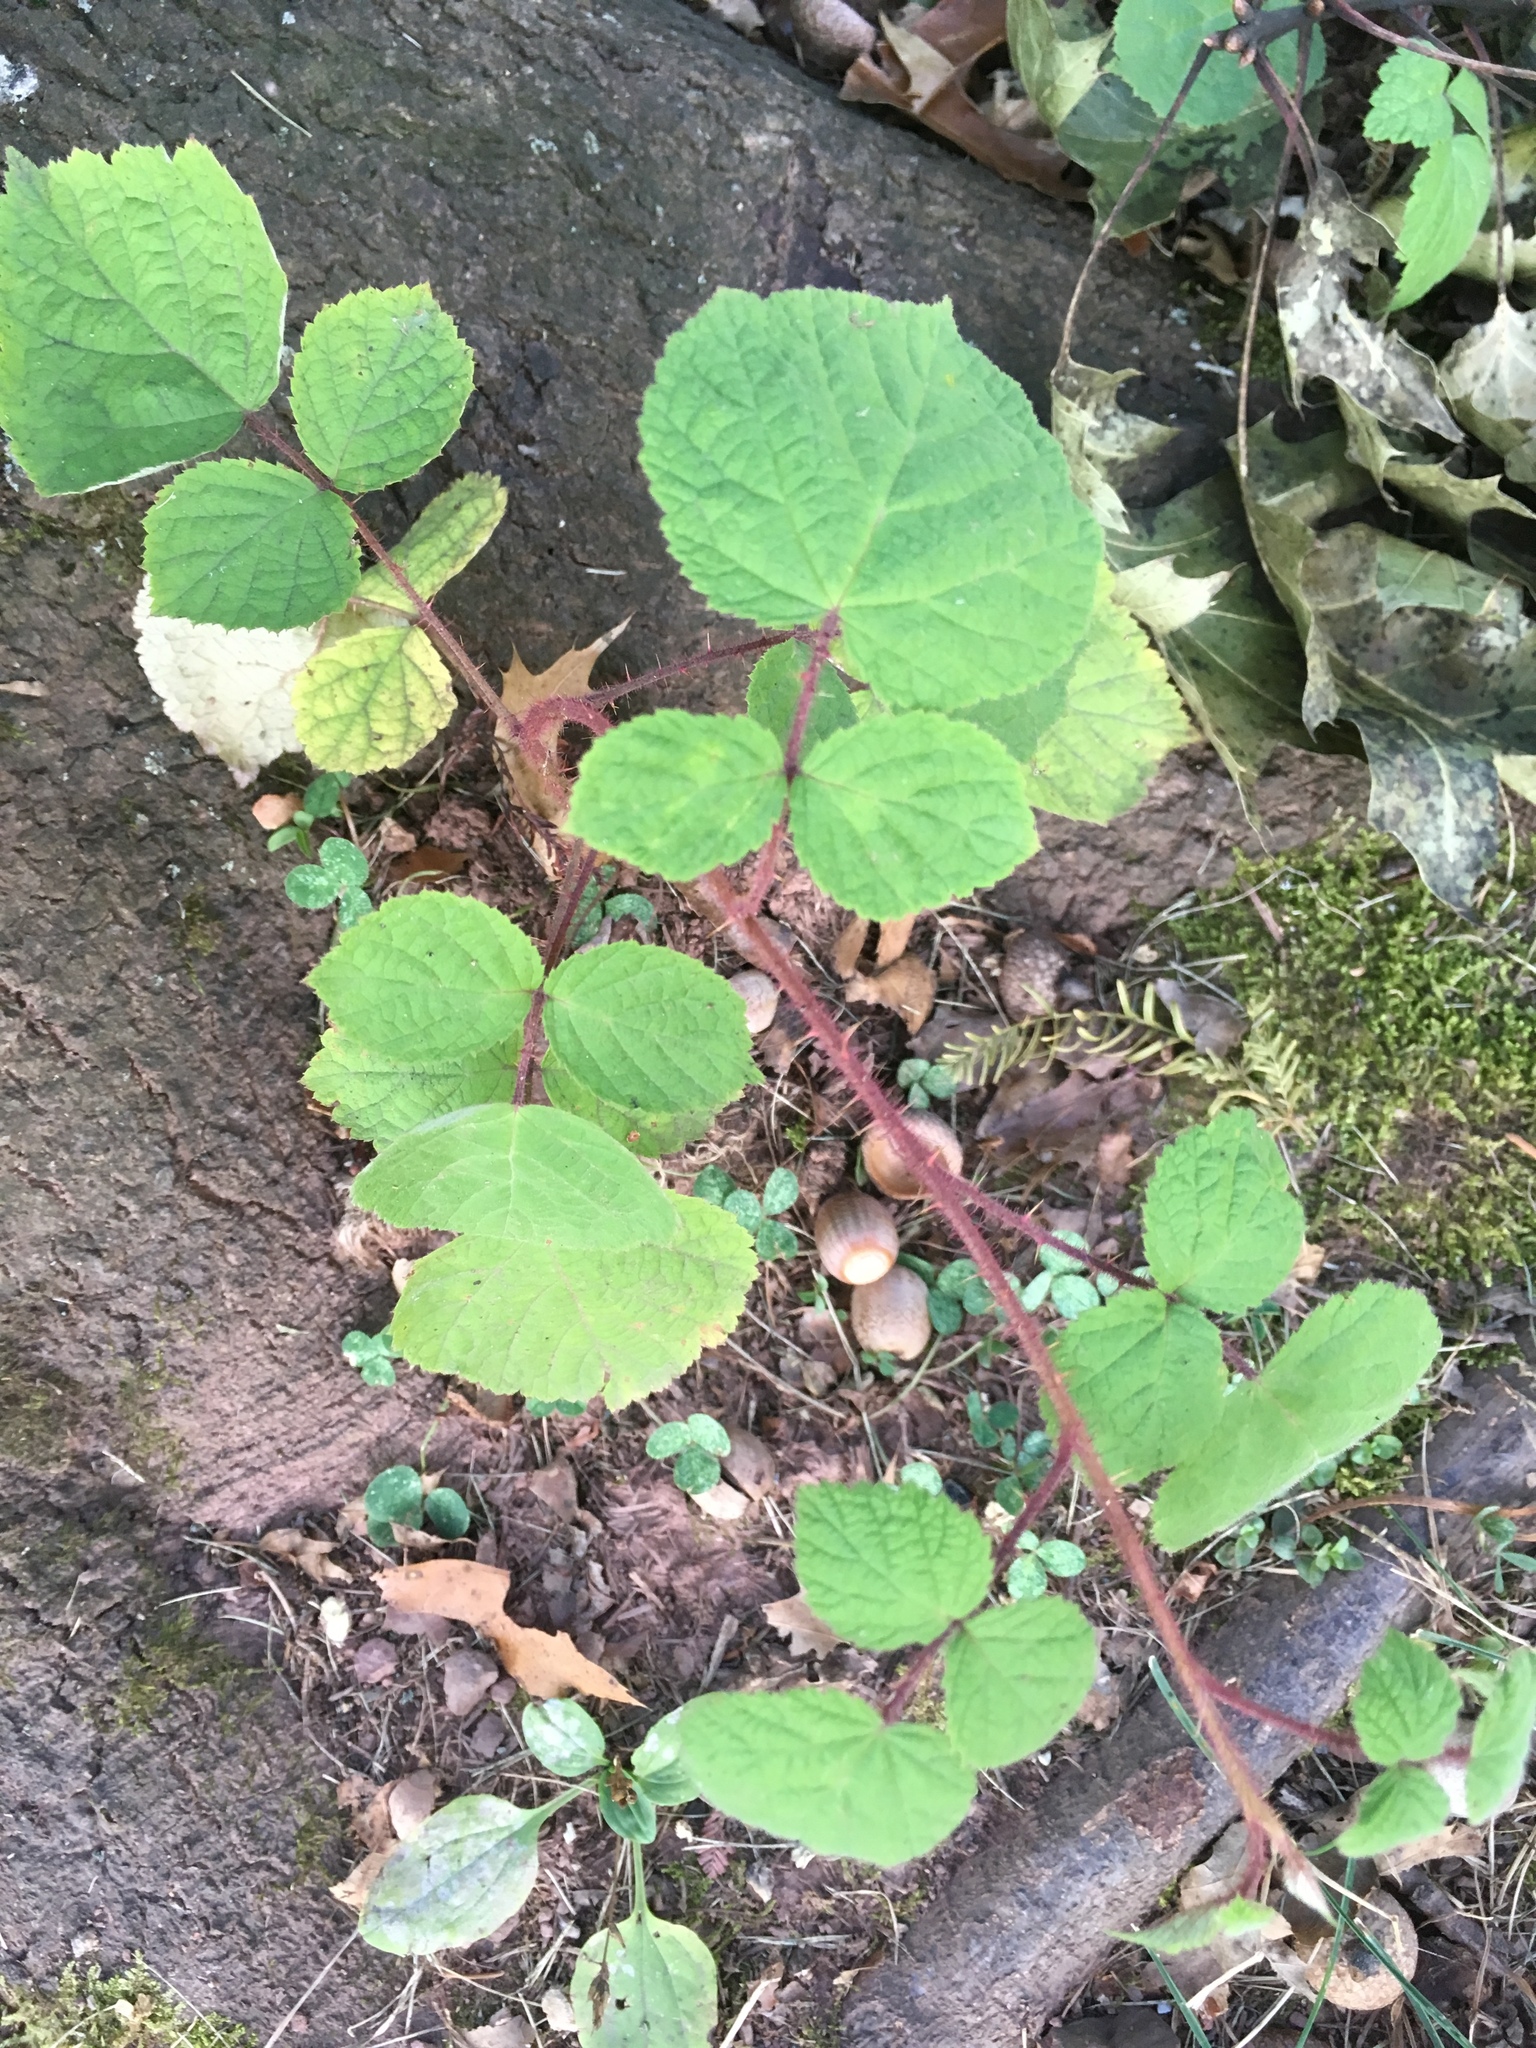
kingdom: Plantae
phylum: Tracheophyta
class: Magnoliopsida
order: Rosales
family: Rosaceae
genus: Rubus
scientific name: Rubus phoenicolasius
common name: Japanese wineberry
